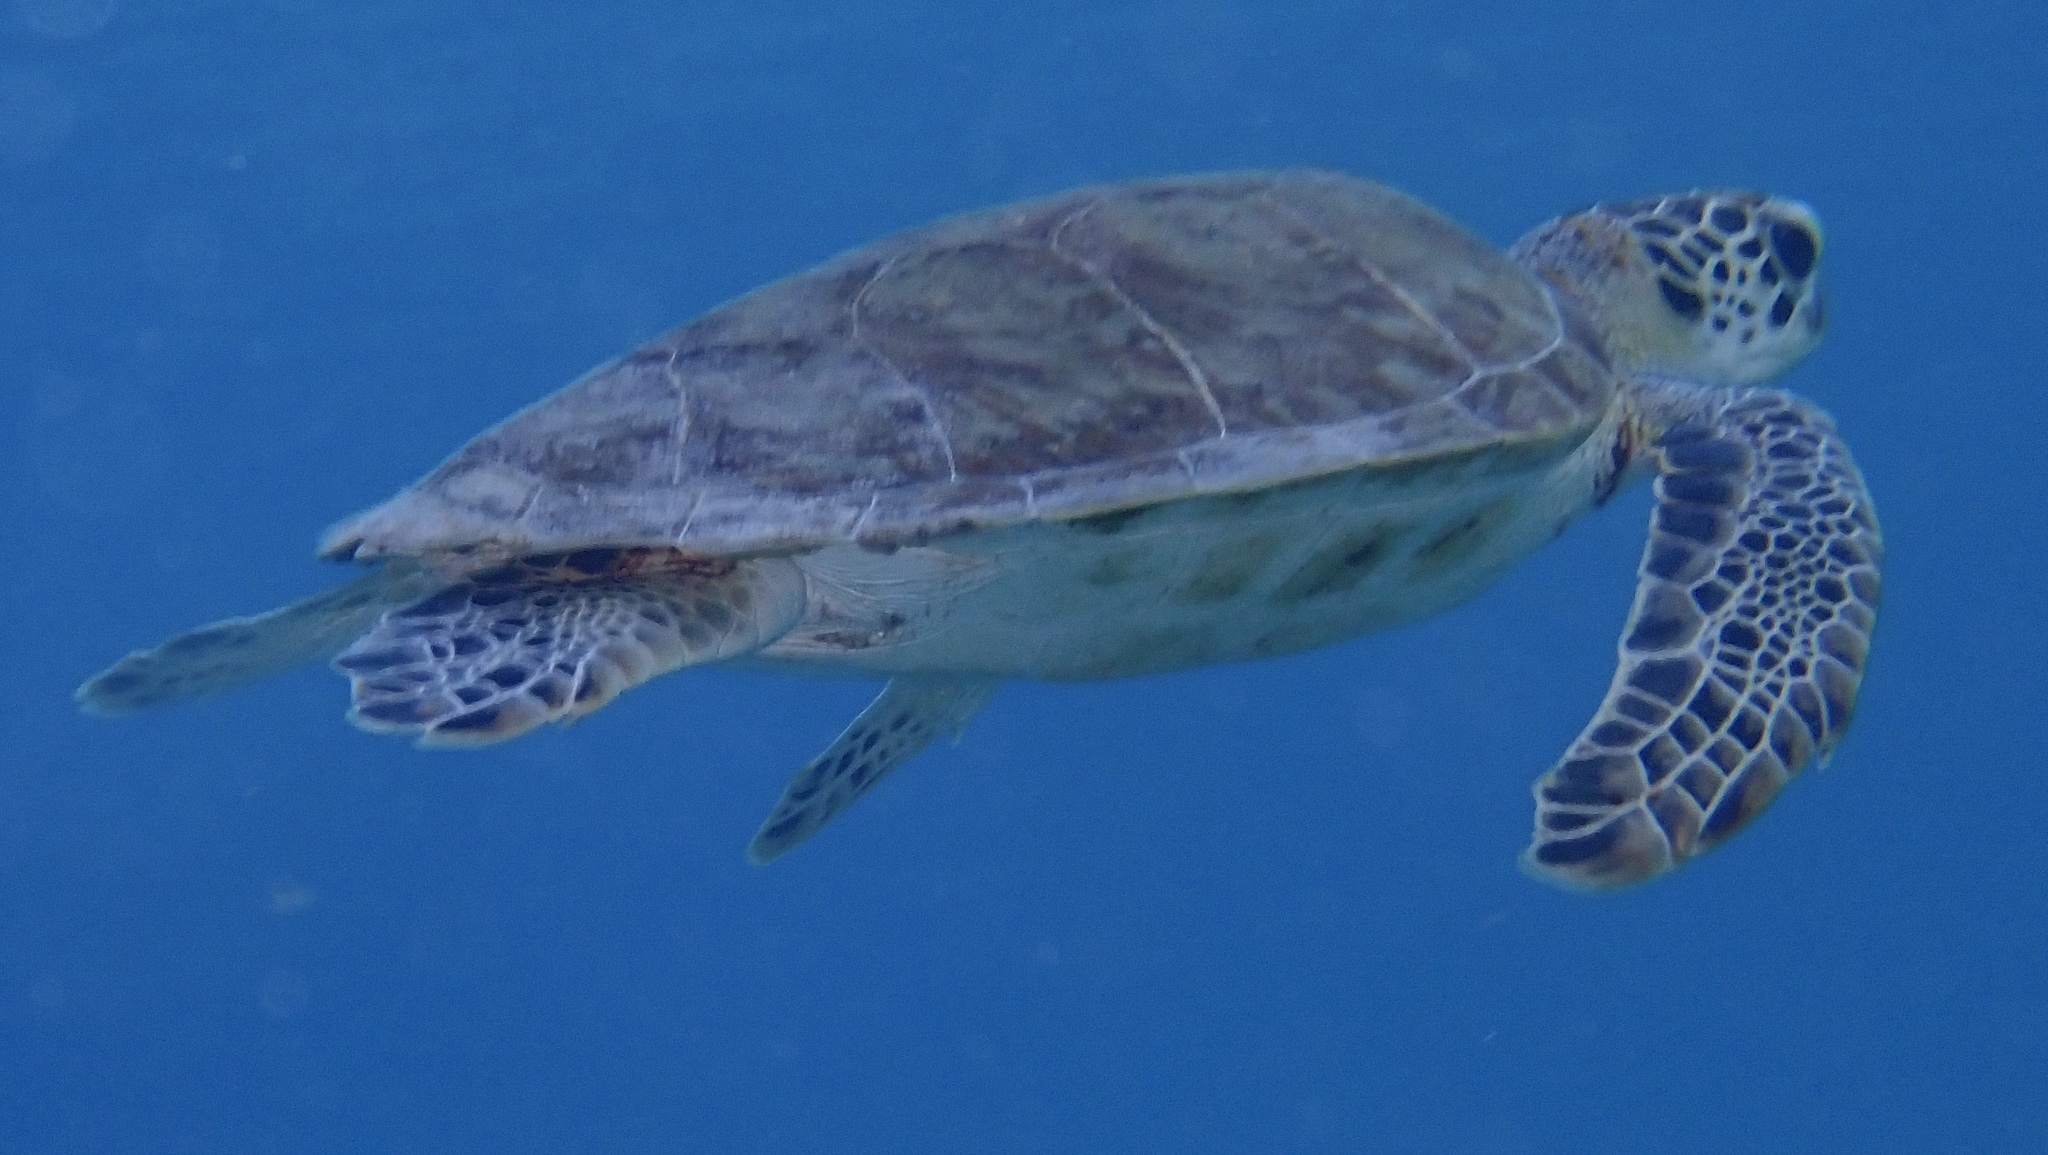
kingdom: Animalia
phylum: Chordata
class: Testudines
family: Cheloniidae
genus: Chelonia
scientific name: Chelonia mydas
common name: Green turtle
